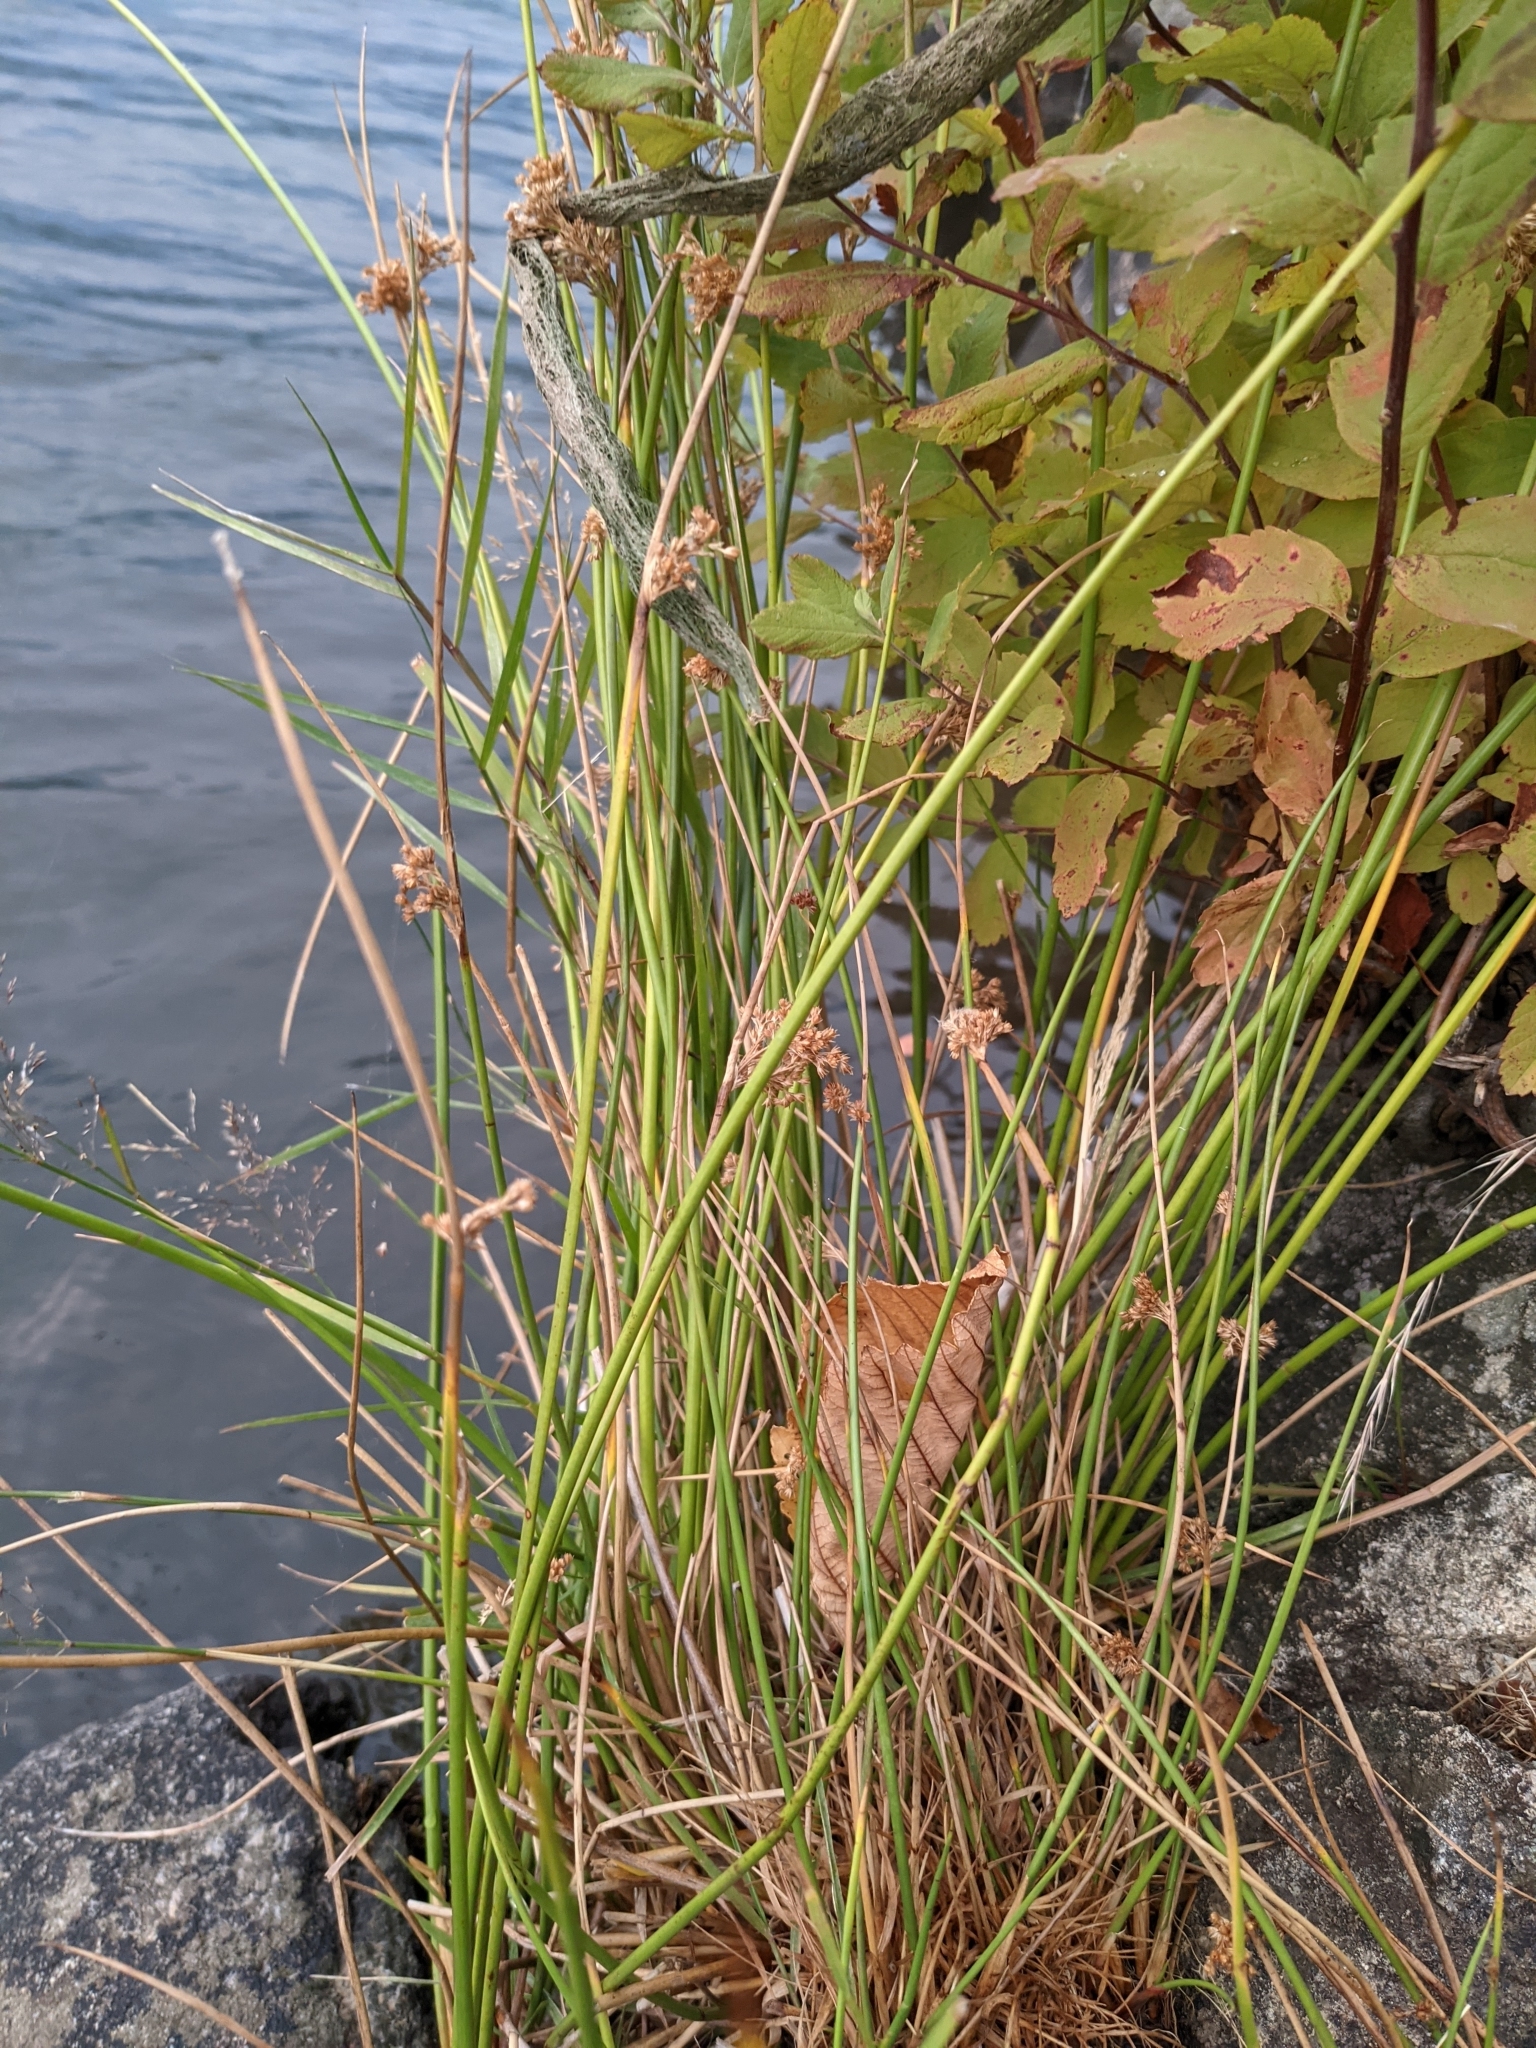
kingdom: Plantae
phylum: Tracheophyta
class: Liliopsida
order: Poales
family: Juncaceae
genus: Juncus
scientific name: Juncus effusus
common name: Soft rush
